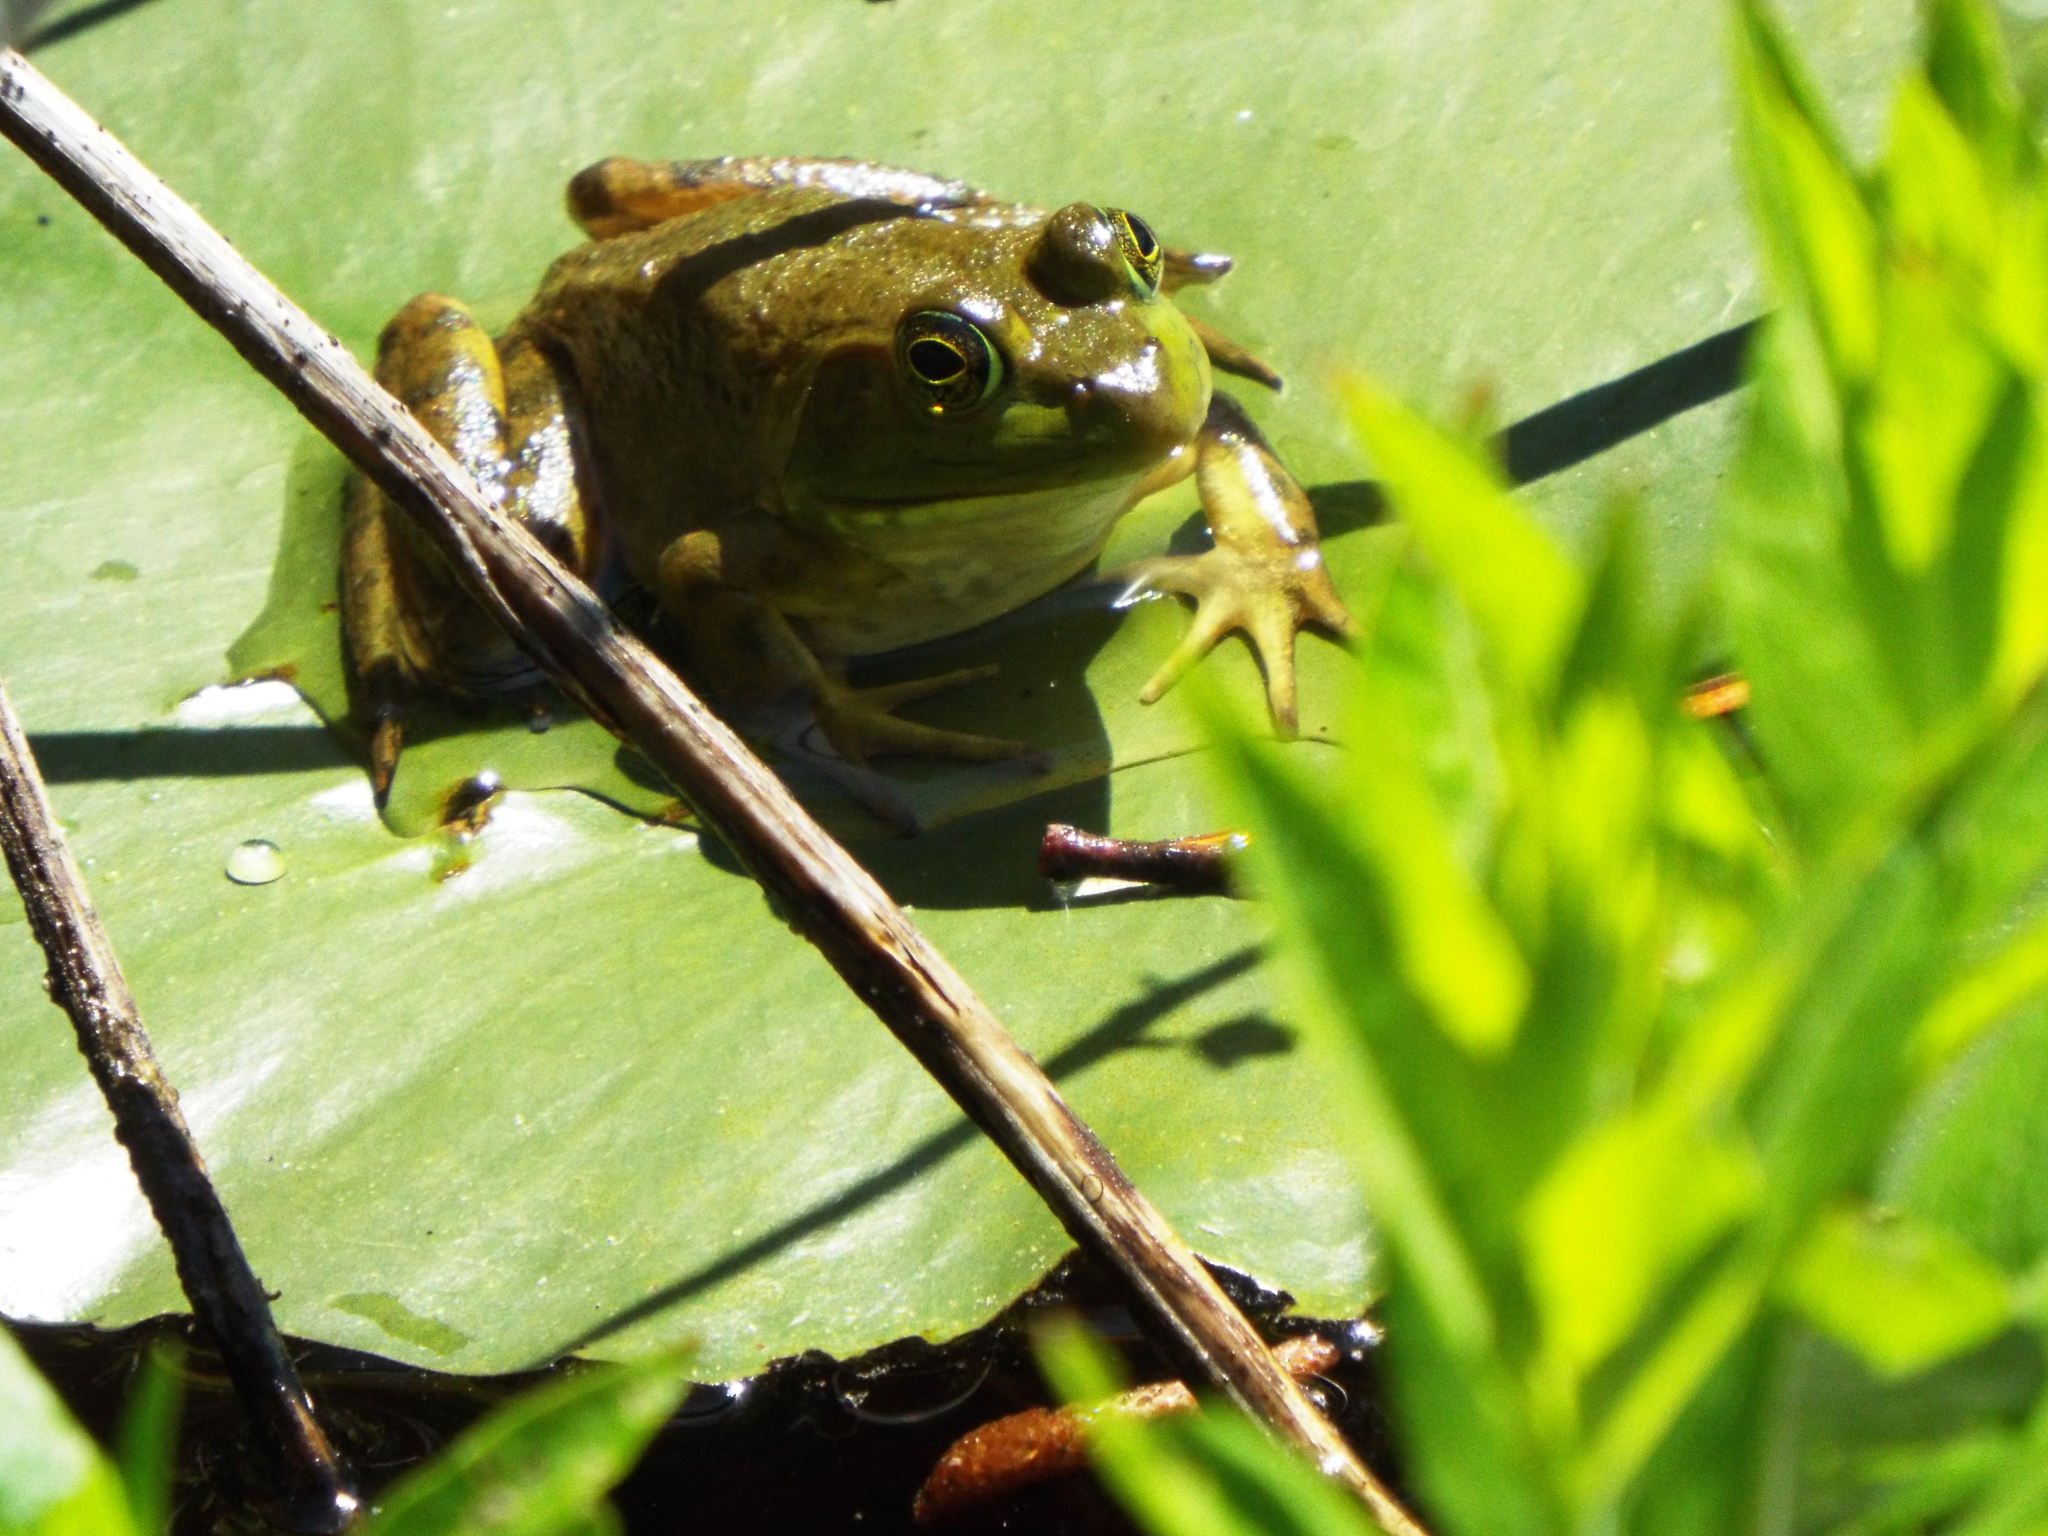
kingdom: Animalia
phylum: Chordata
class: Amphibia
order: Anura
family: Ranidae
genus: Lithobates
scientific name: Lithobates catesbeianus
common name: American bullfrog
